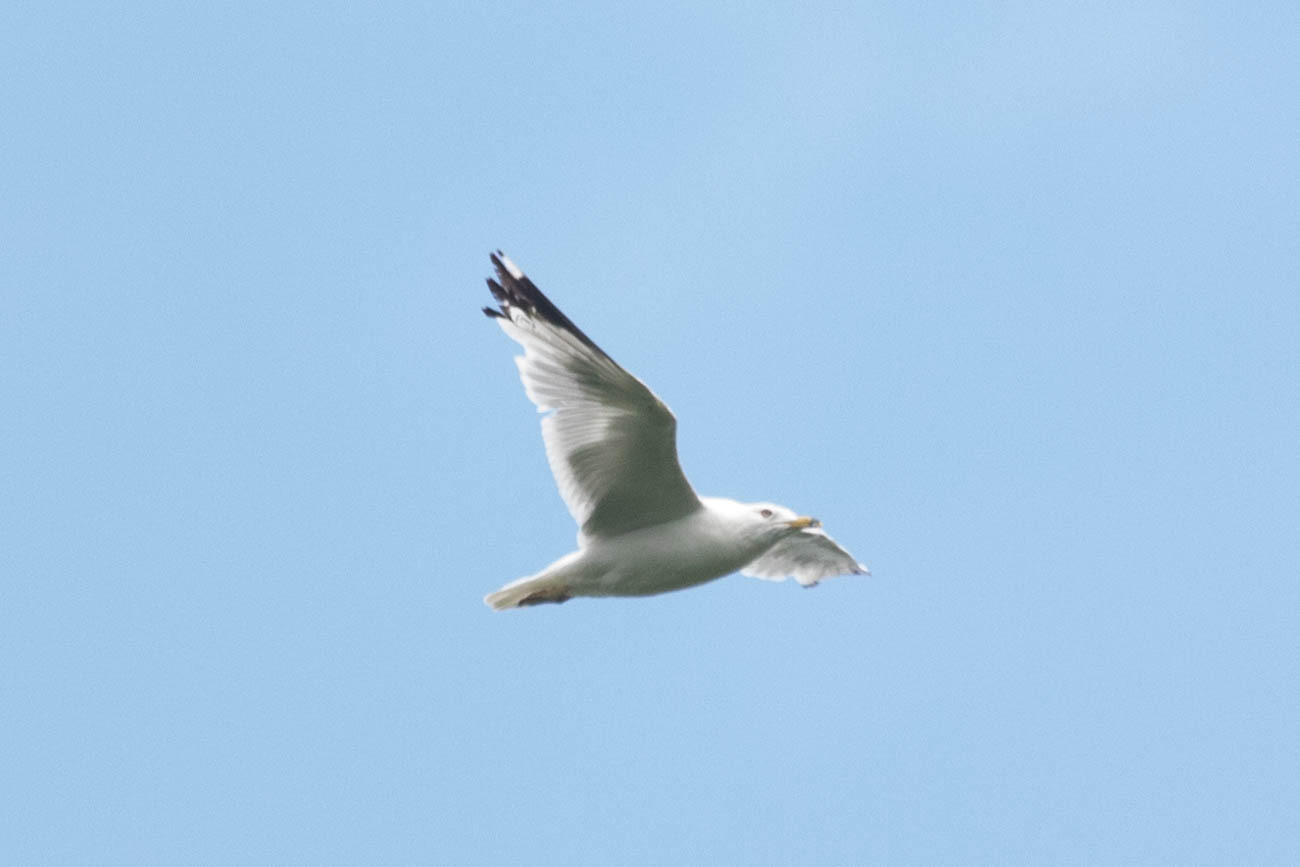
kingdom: Animalia
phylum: Chordata
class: Aves
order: Charadriiformes
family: Laridae
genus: Larus
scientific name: Larus delawarensis
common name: Ring-billed gull
